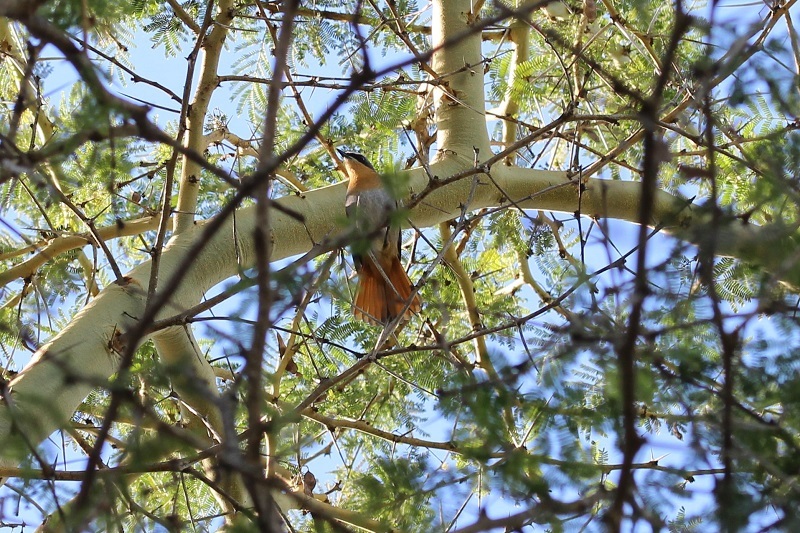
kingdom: Animalia
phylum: Chordata
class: Aves
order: Passeriformes
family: Muscicapidae
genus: Cossypha
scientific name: Cossypha caffra
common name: Cape robin-chat
